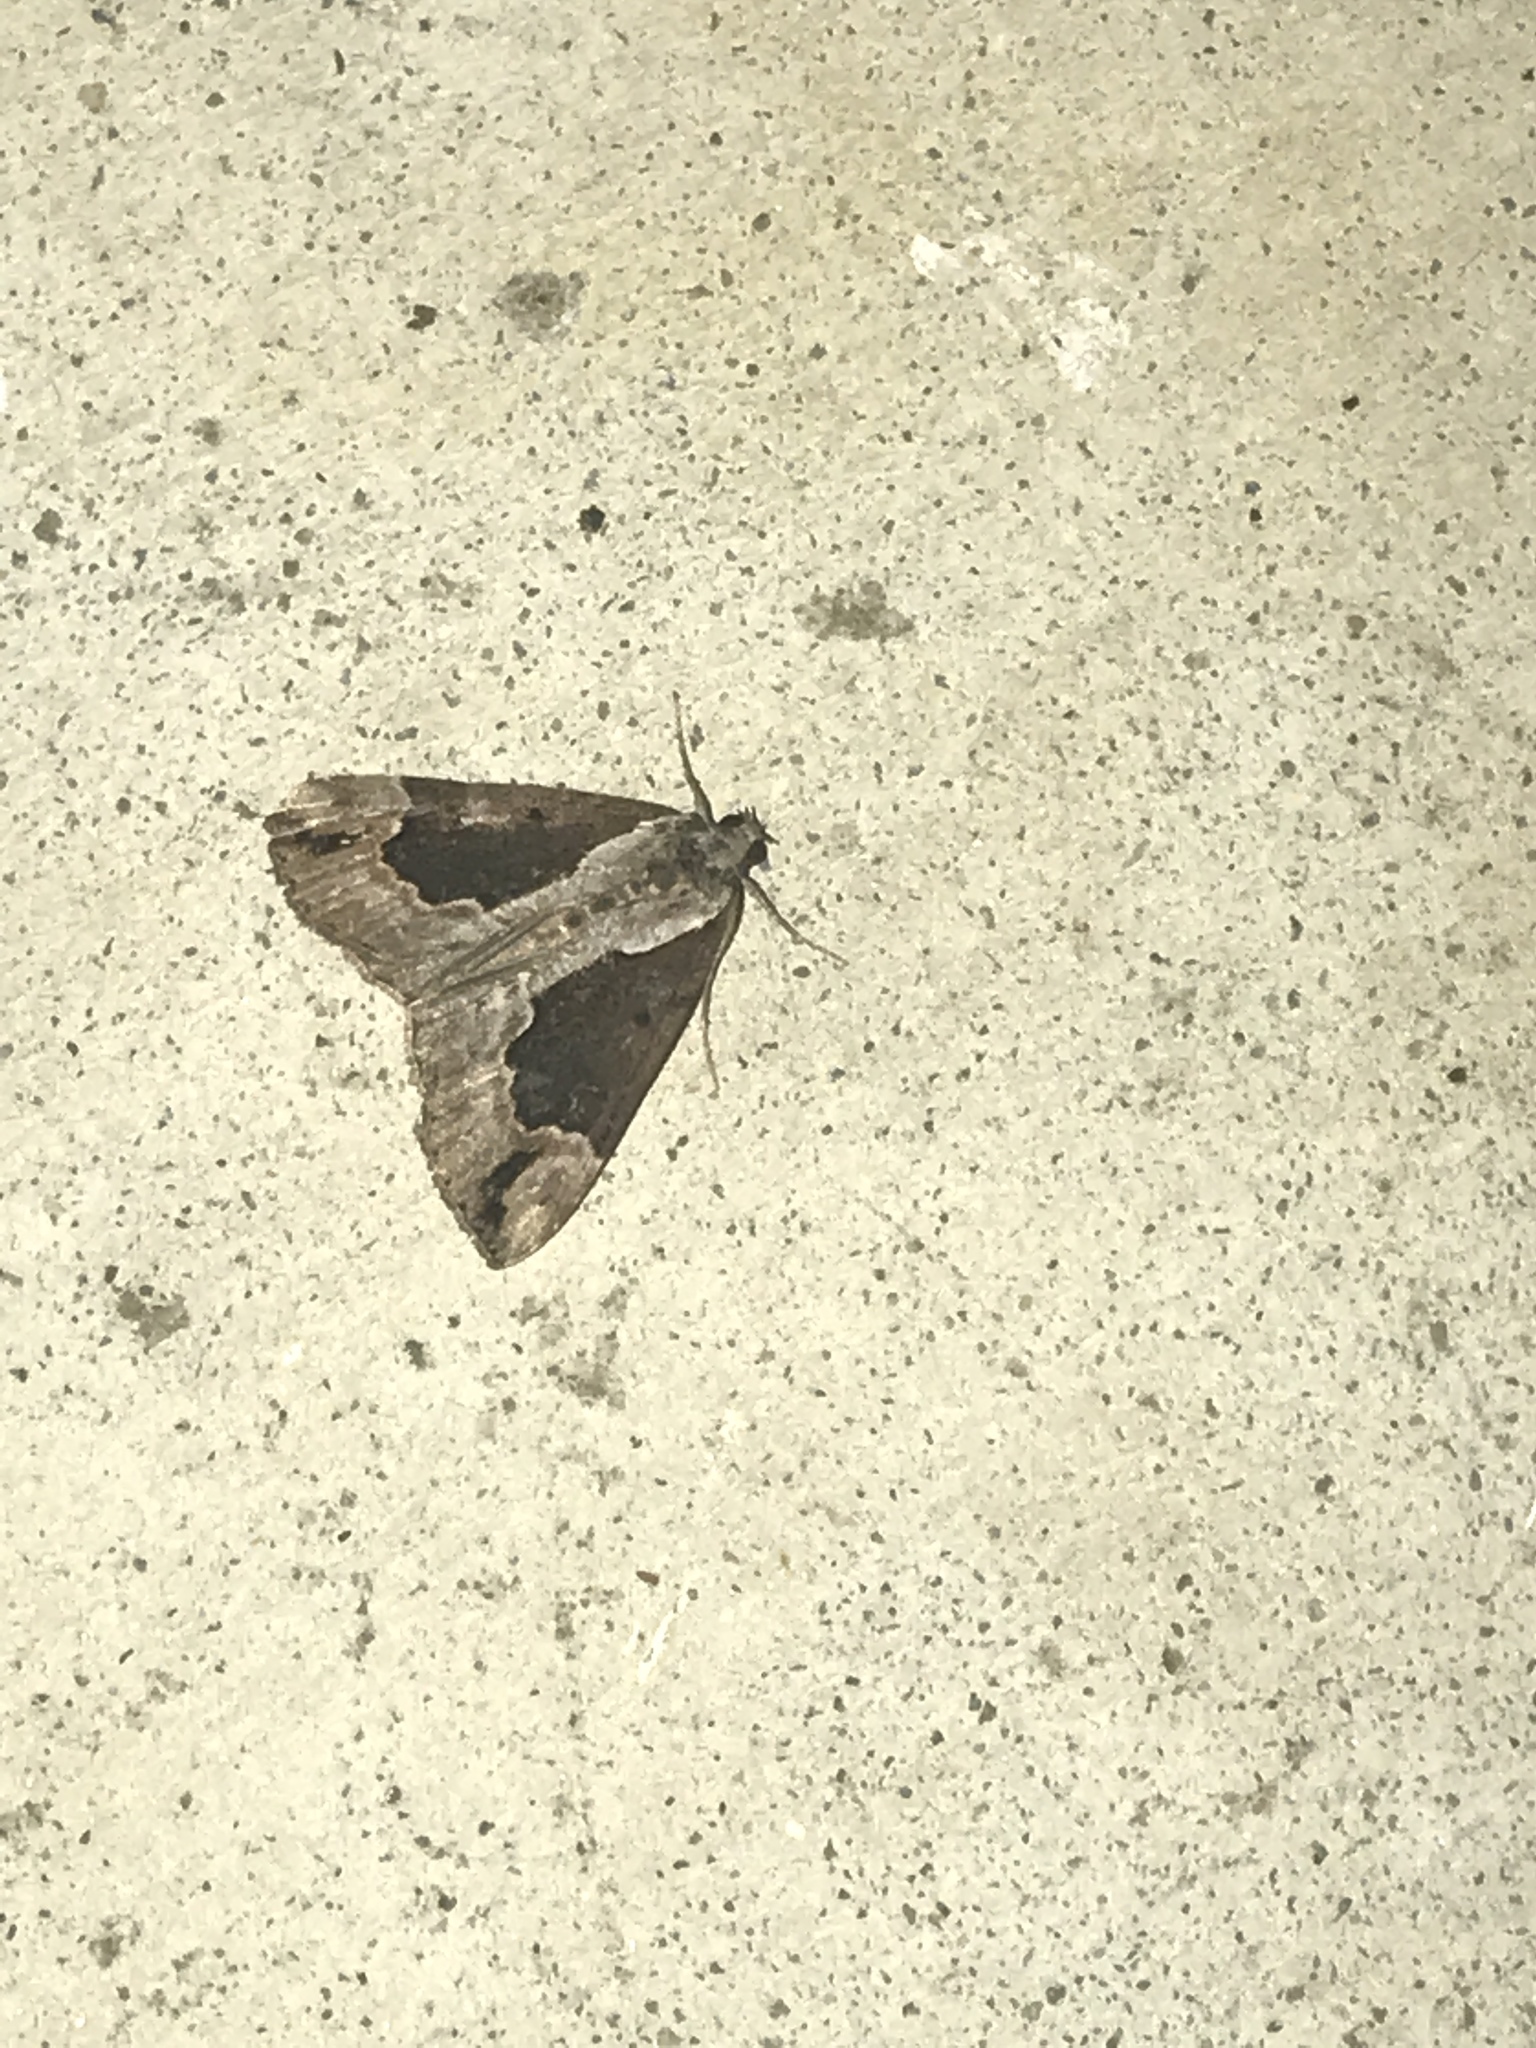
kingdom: Animalia
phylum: Arthropoda
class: Insecta
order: Lepidoptera
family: Erebidae
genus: Hypena
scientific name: Hypena baltimoralis
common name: Baltimore snout
